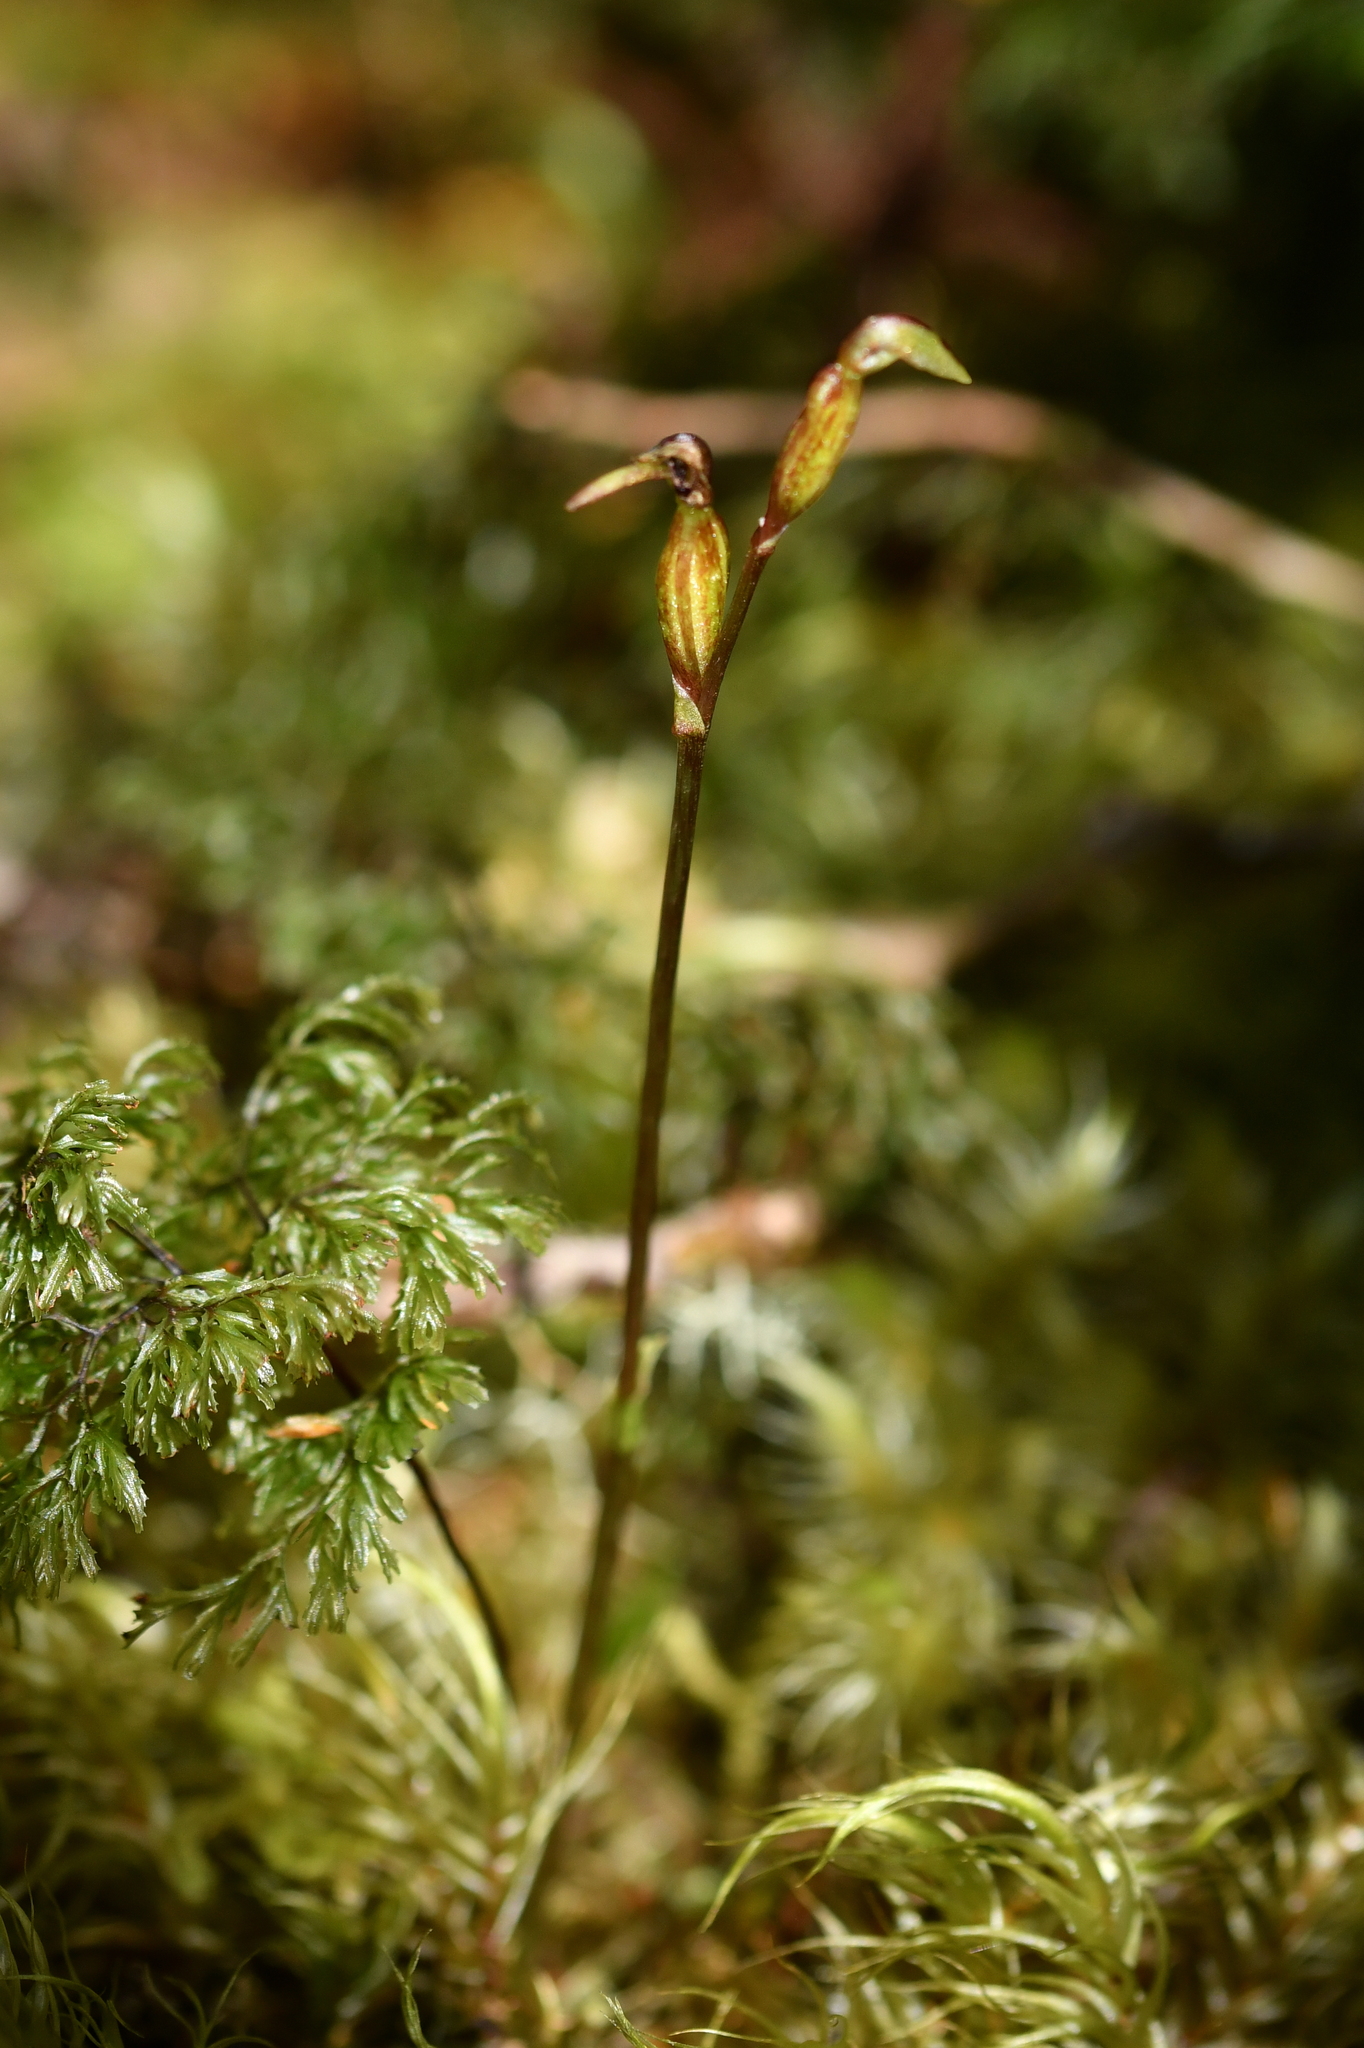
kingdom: Plantae
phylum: Tracheophyta
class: Liliopsida
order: Asparagales
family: Orchidaceae
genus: Townsonia
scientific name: Townsonia deflexa
